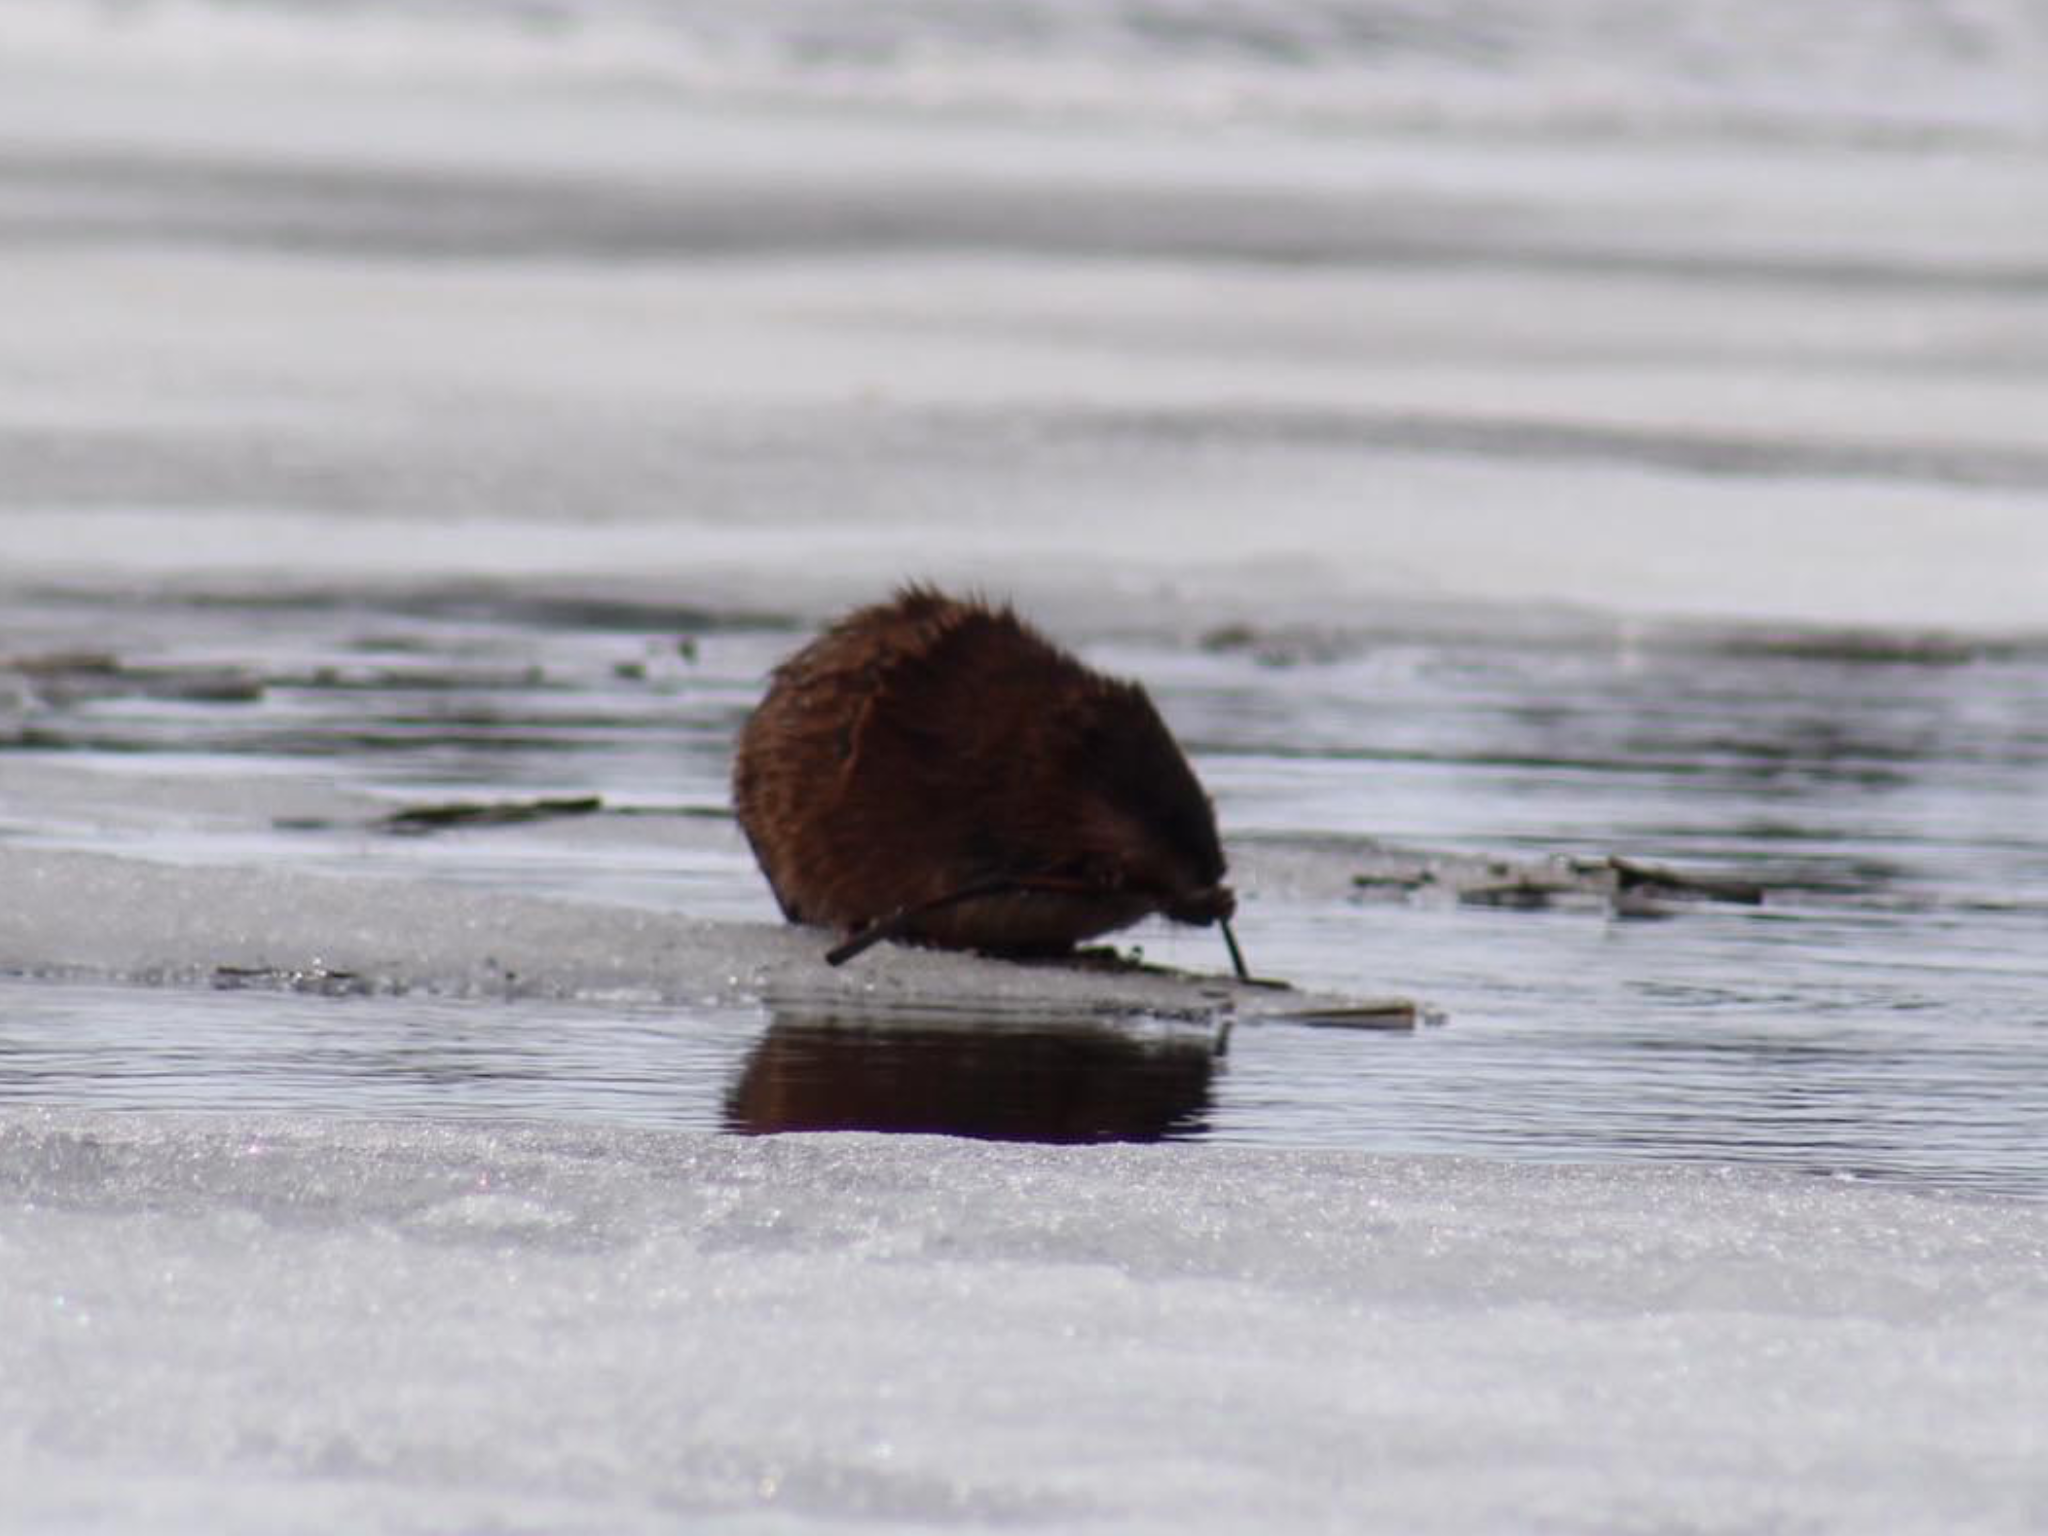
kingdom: Animalia
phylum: Chordata
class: Mammalia
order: Rodentia
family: Cricetidae
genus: Ondatra
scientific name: Ondatra zibethicus
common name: Muskrat
